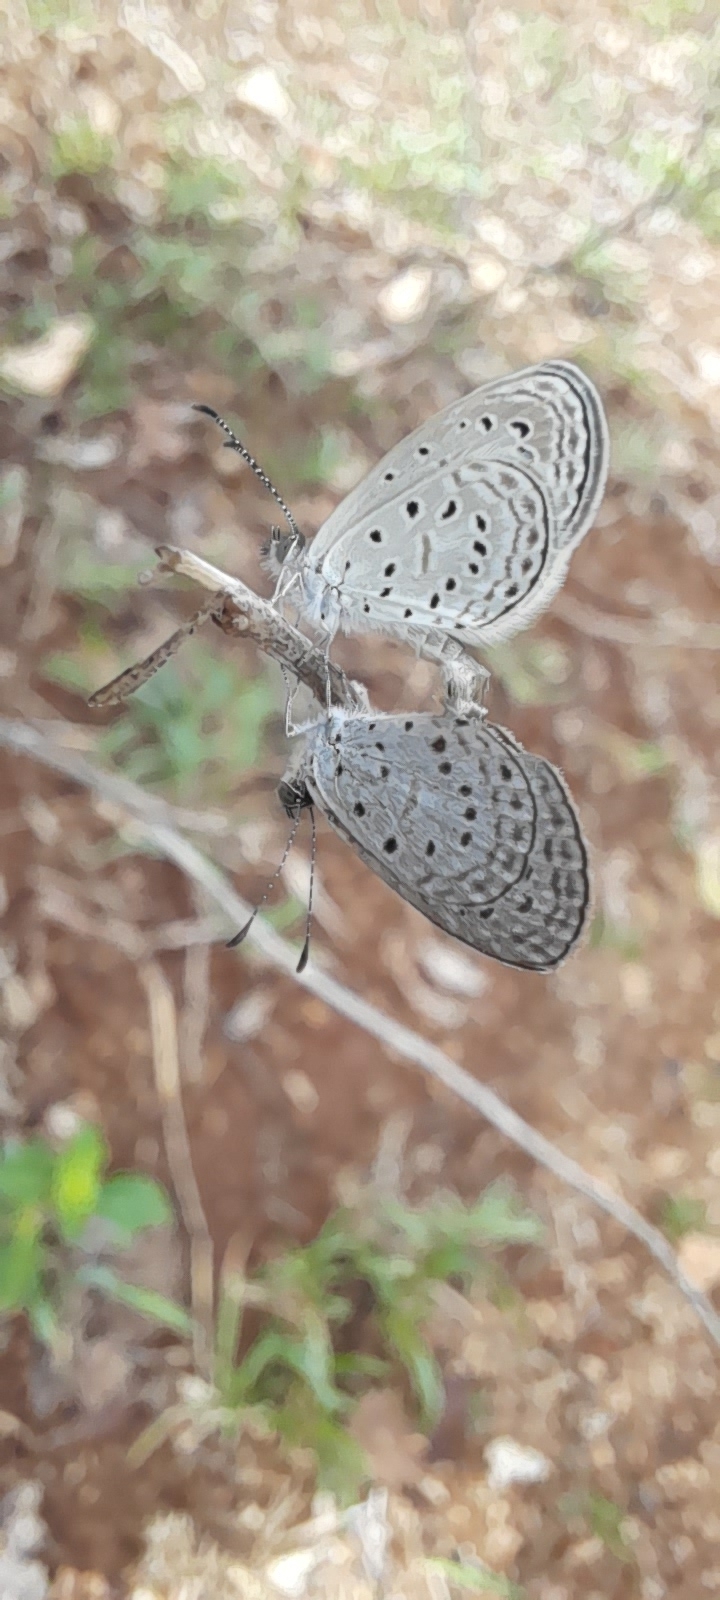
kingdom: Animalia
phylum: Arthropoda
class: Insecta
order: Lepidoptera
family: Lycaenidae
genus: Zizula
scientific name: Zizula hylax
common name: Gaika blue
